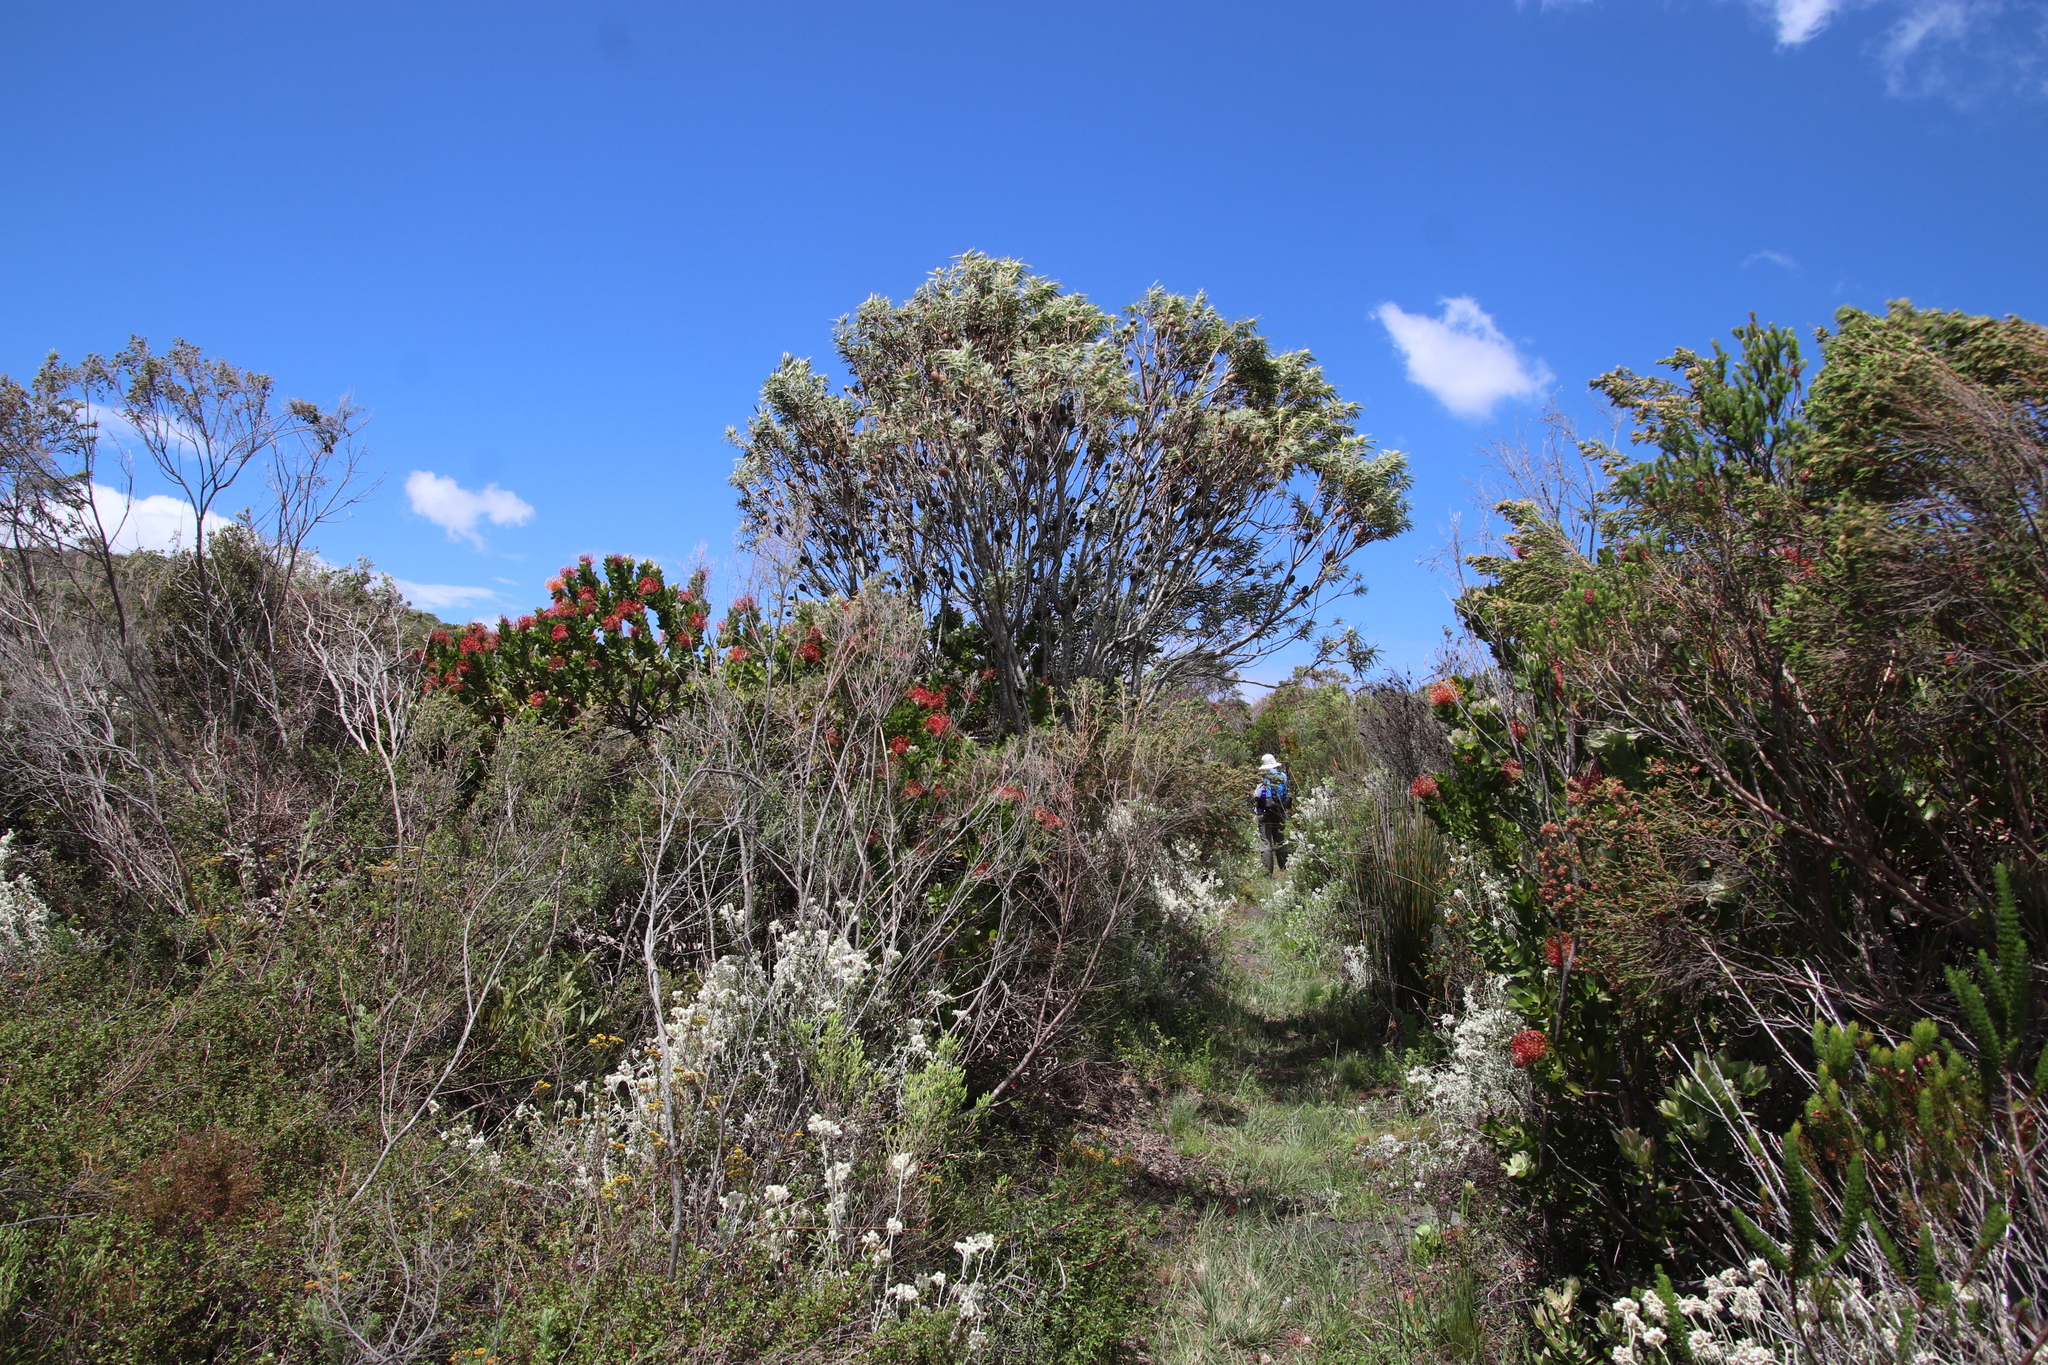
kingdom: Plantae
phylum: Tracheophyta
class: Magnoliopsida
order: Proteales
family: Proteaceae
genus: Leucadendron
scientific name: Leucadendron coniferum
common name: Dune conebush
